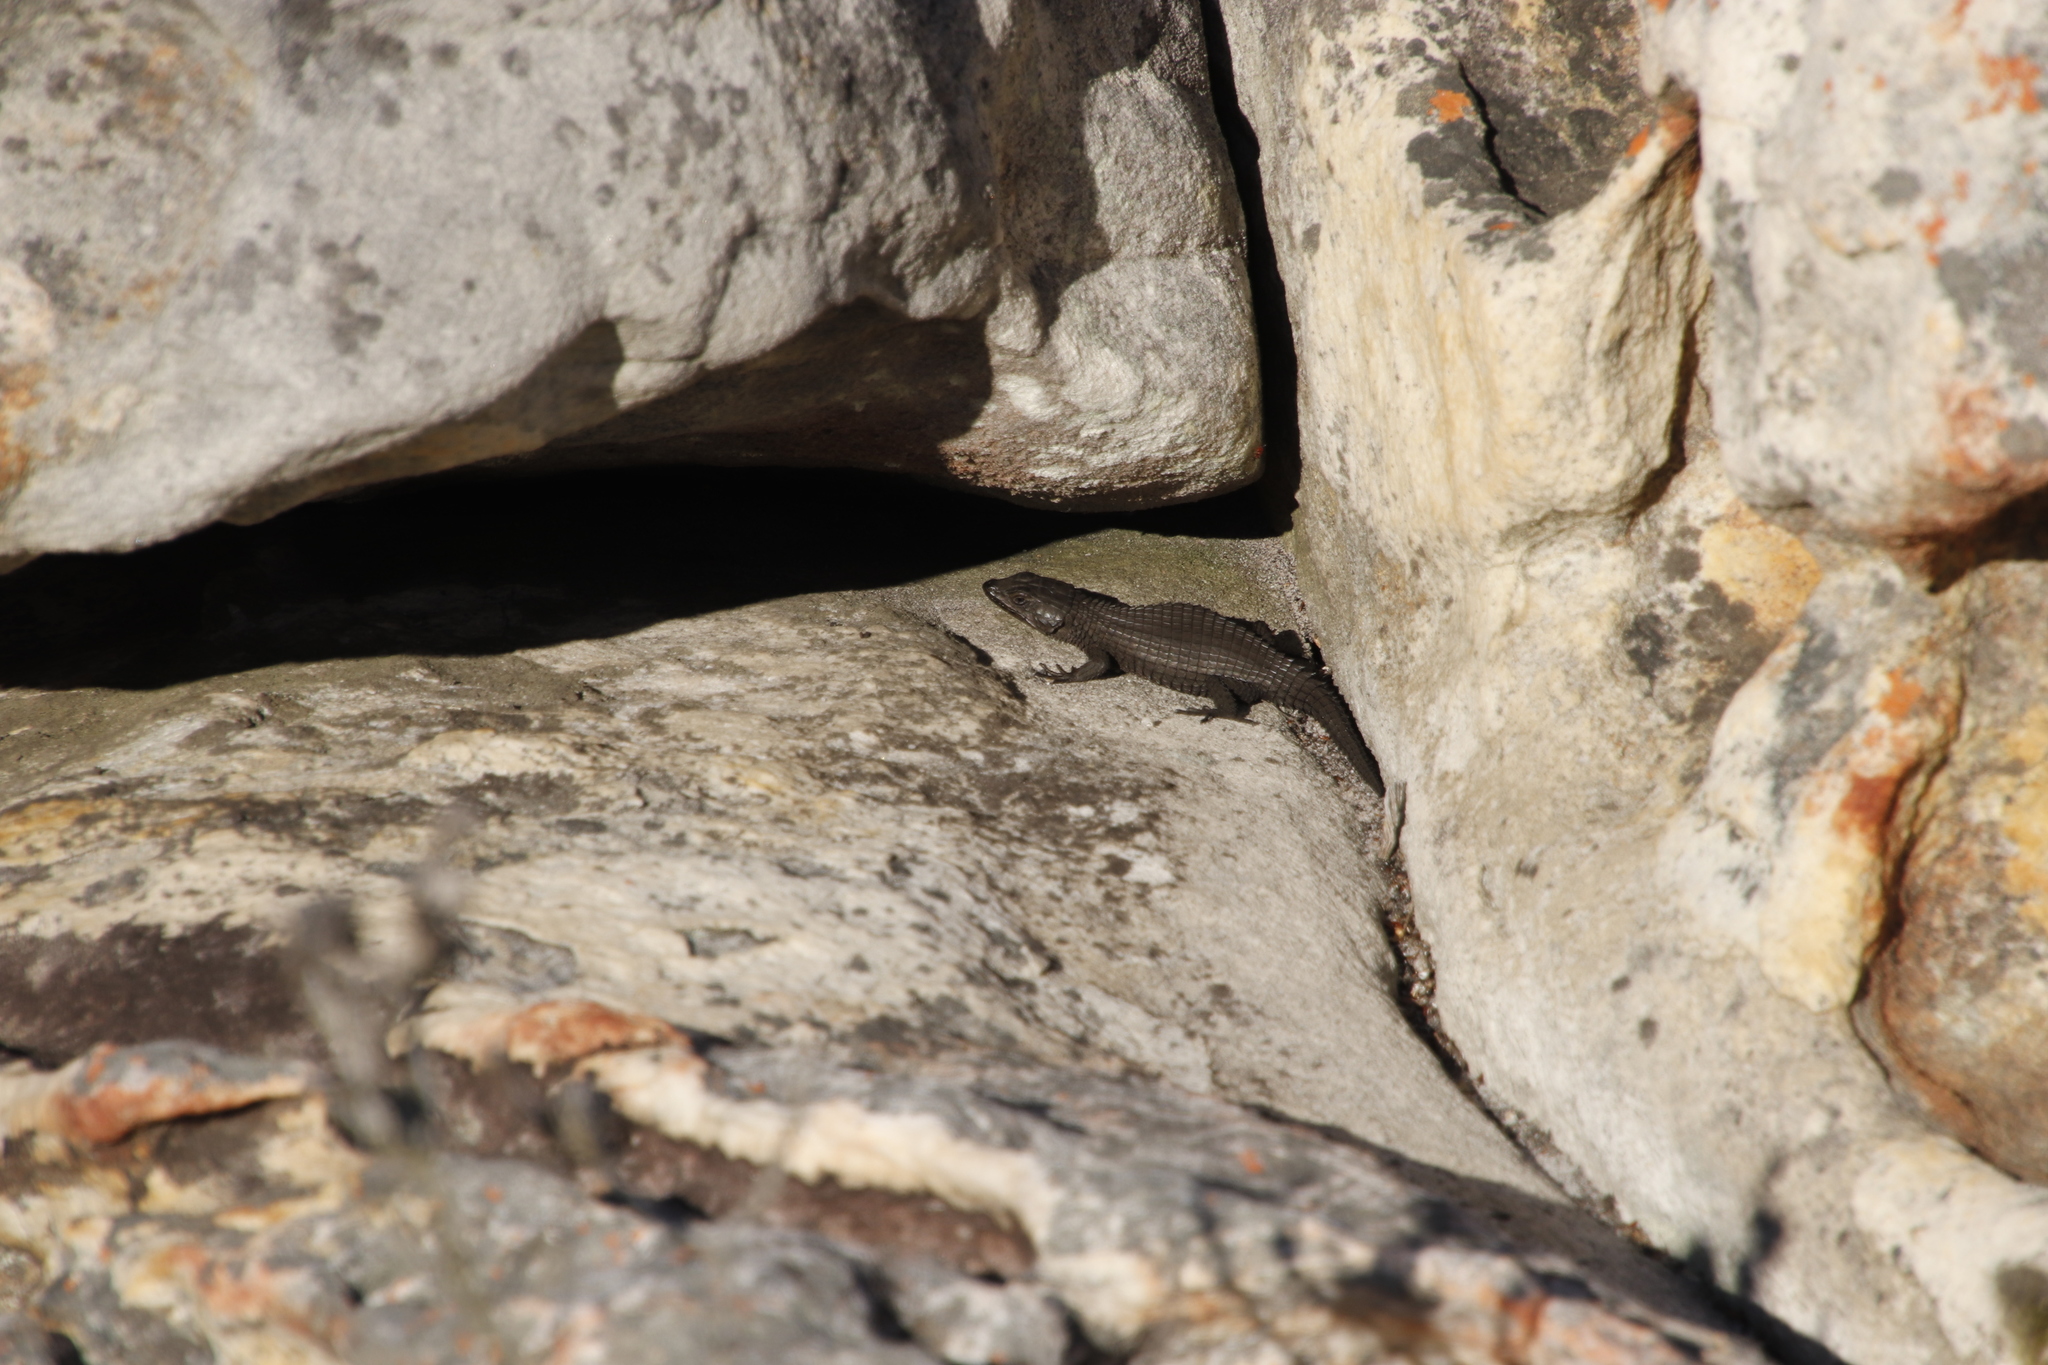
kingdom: Animalia
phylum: Chordata
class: Squamata
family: Cordylidae
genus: Cordylus
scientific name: Cordylus niger
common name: Black girdled lizard
